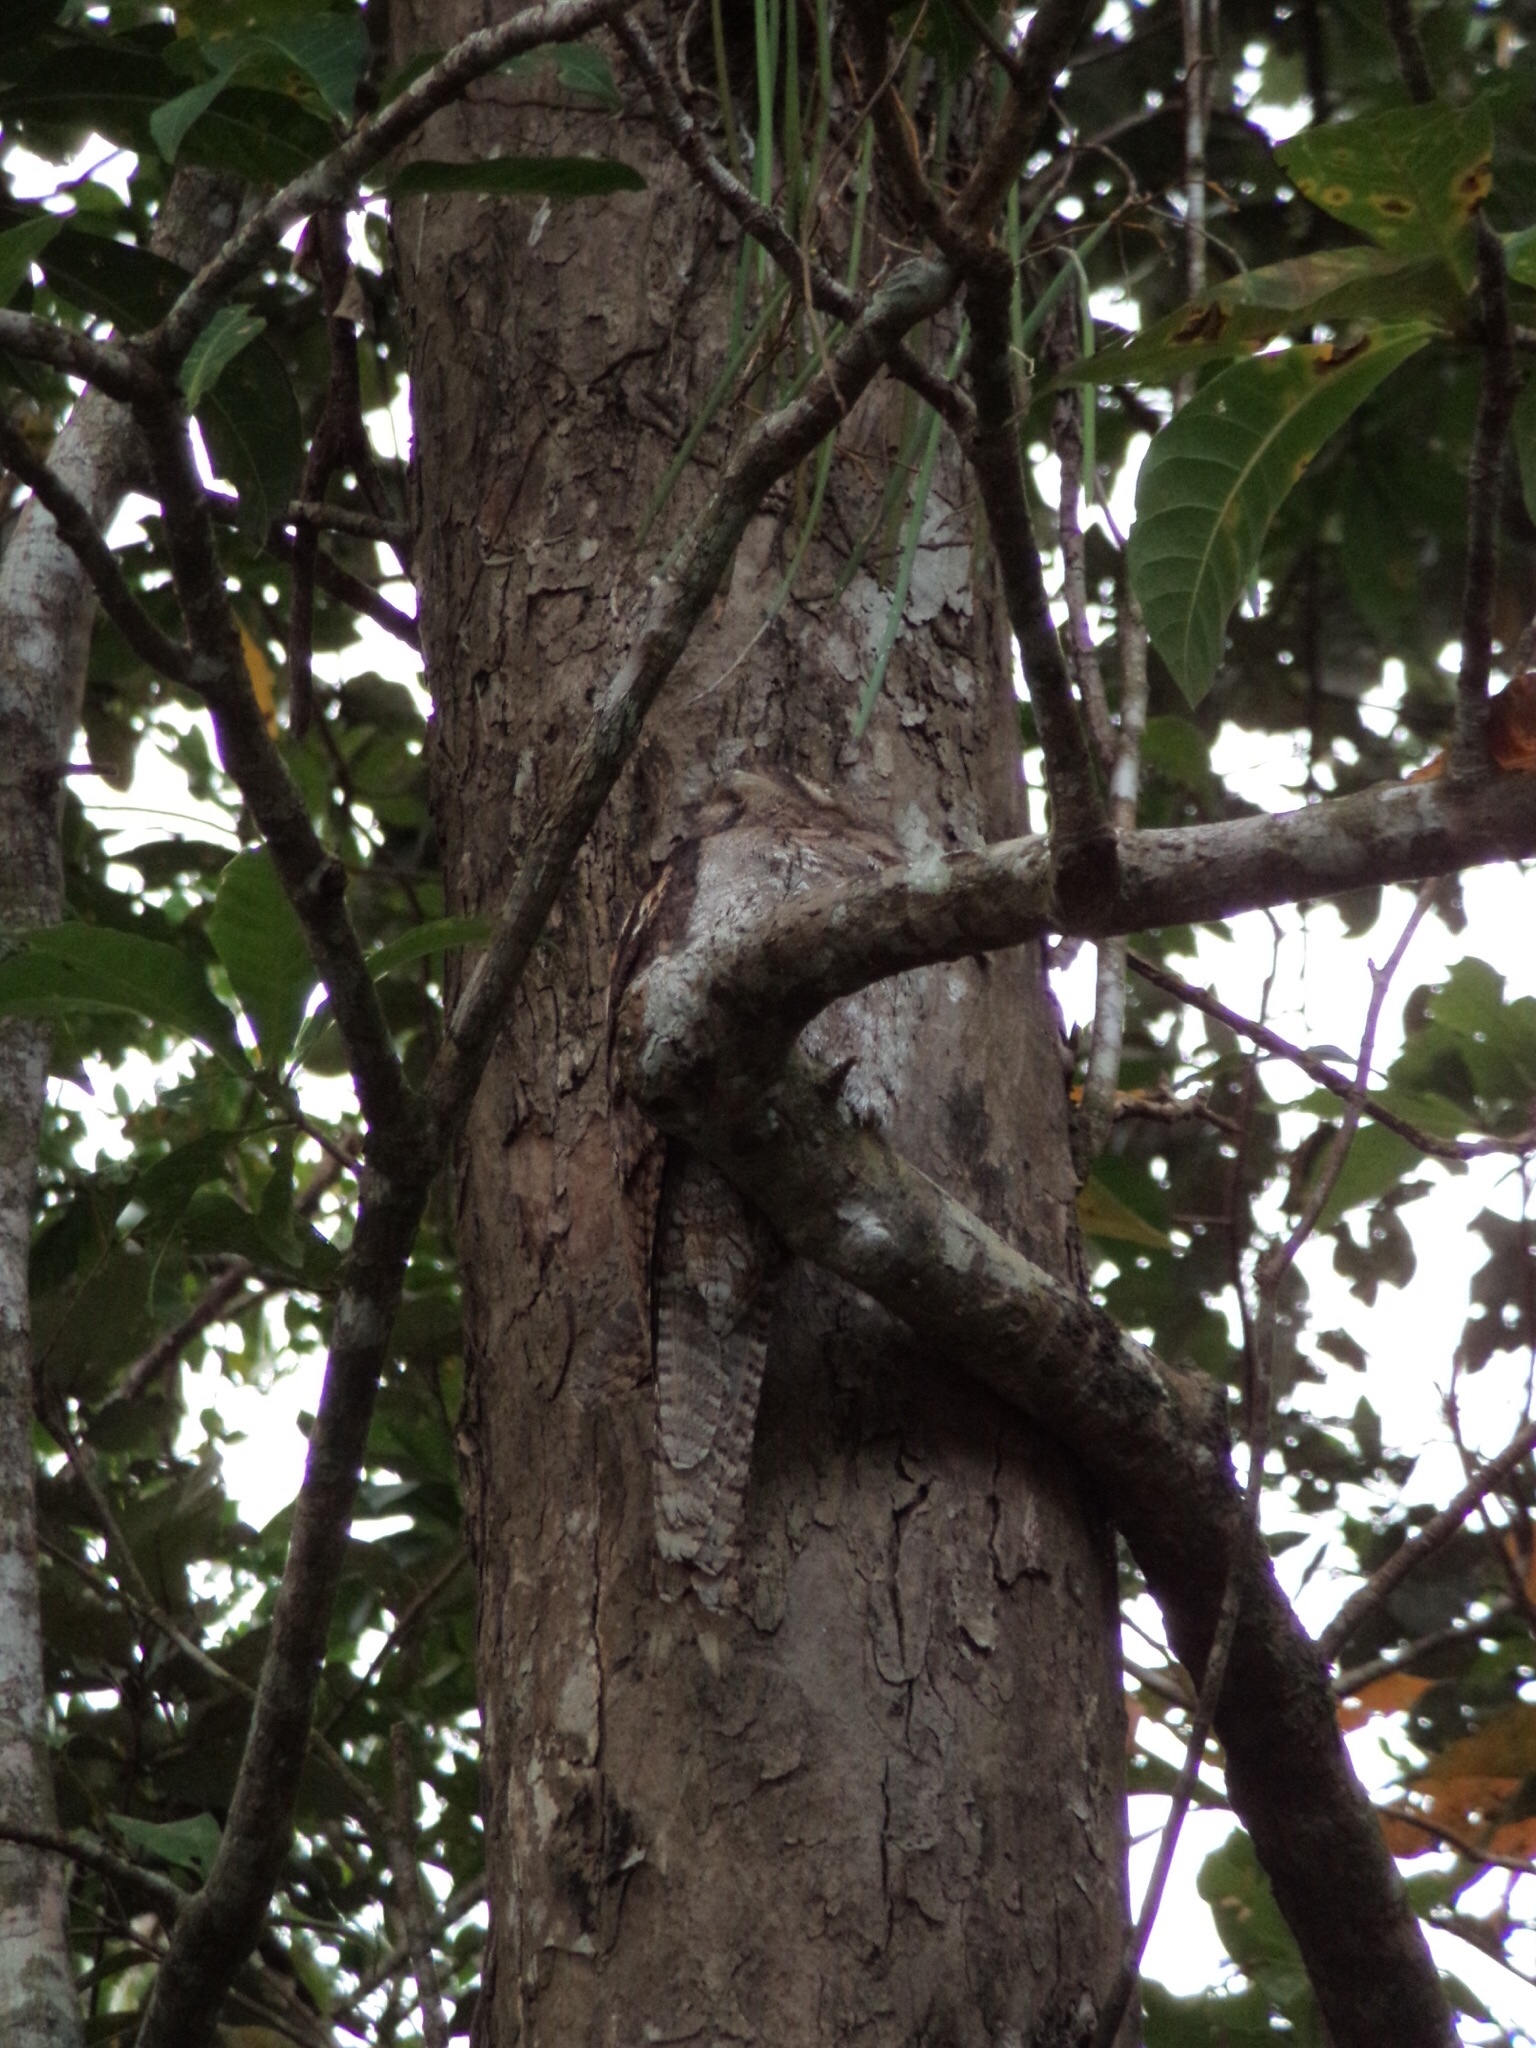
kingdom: Animalia
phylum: Chordata
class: Aves
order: Caprimulgiformes
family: Podargidae
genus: Podargus
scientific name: Podargus papuensis
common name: Papuan frogmouth
